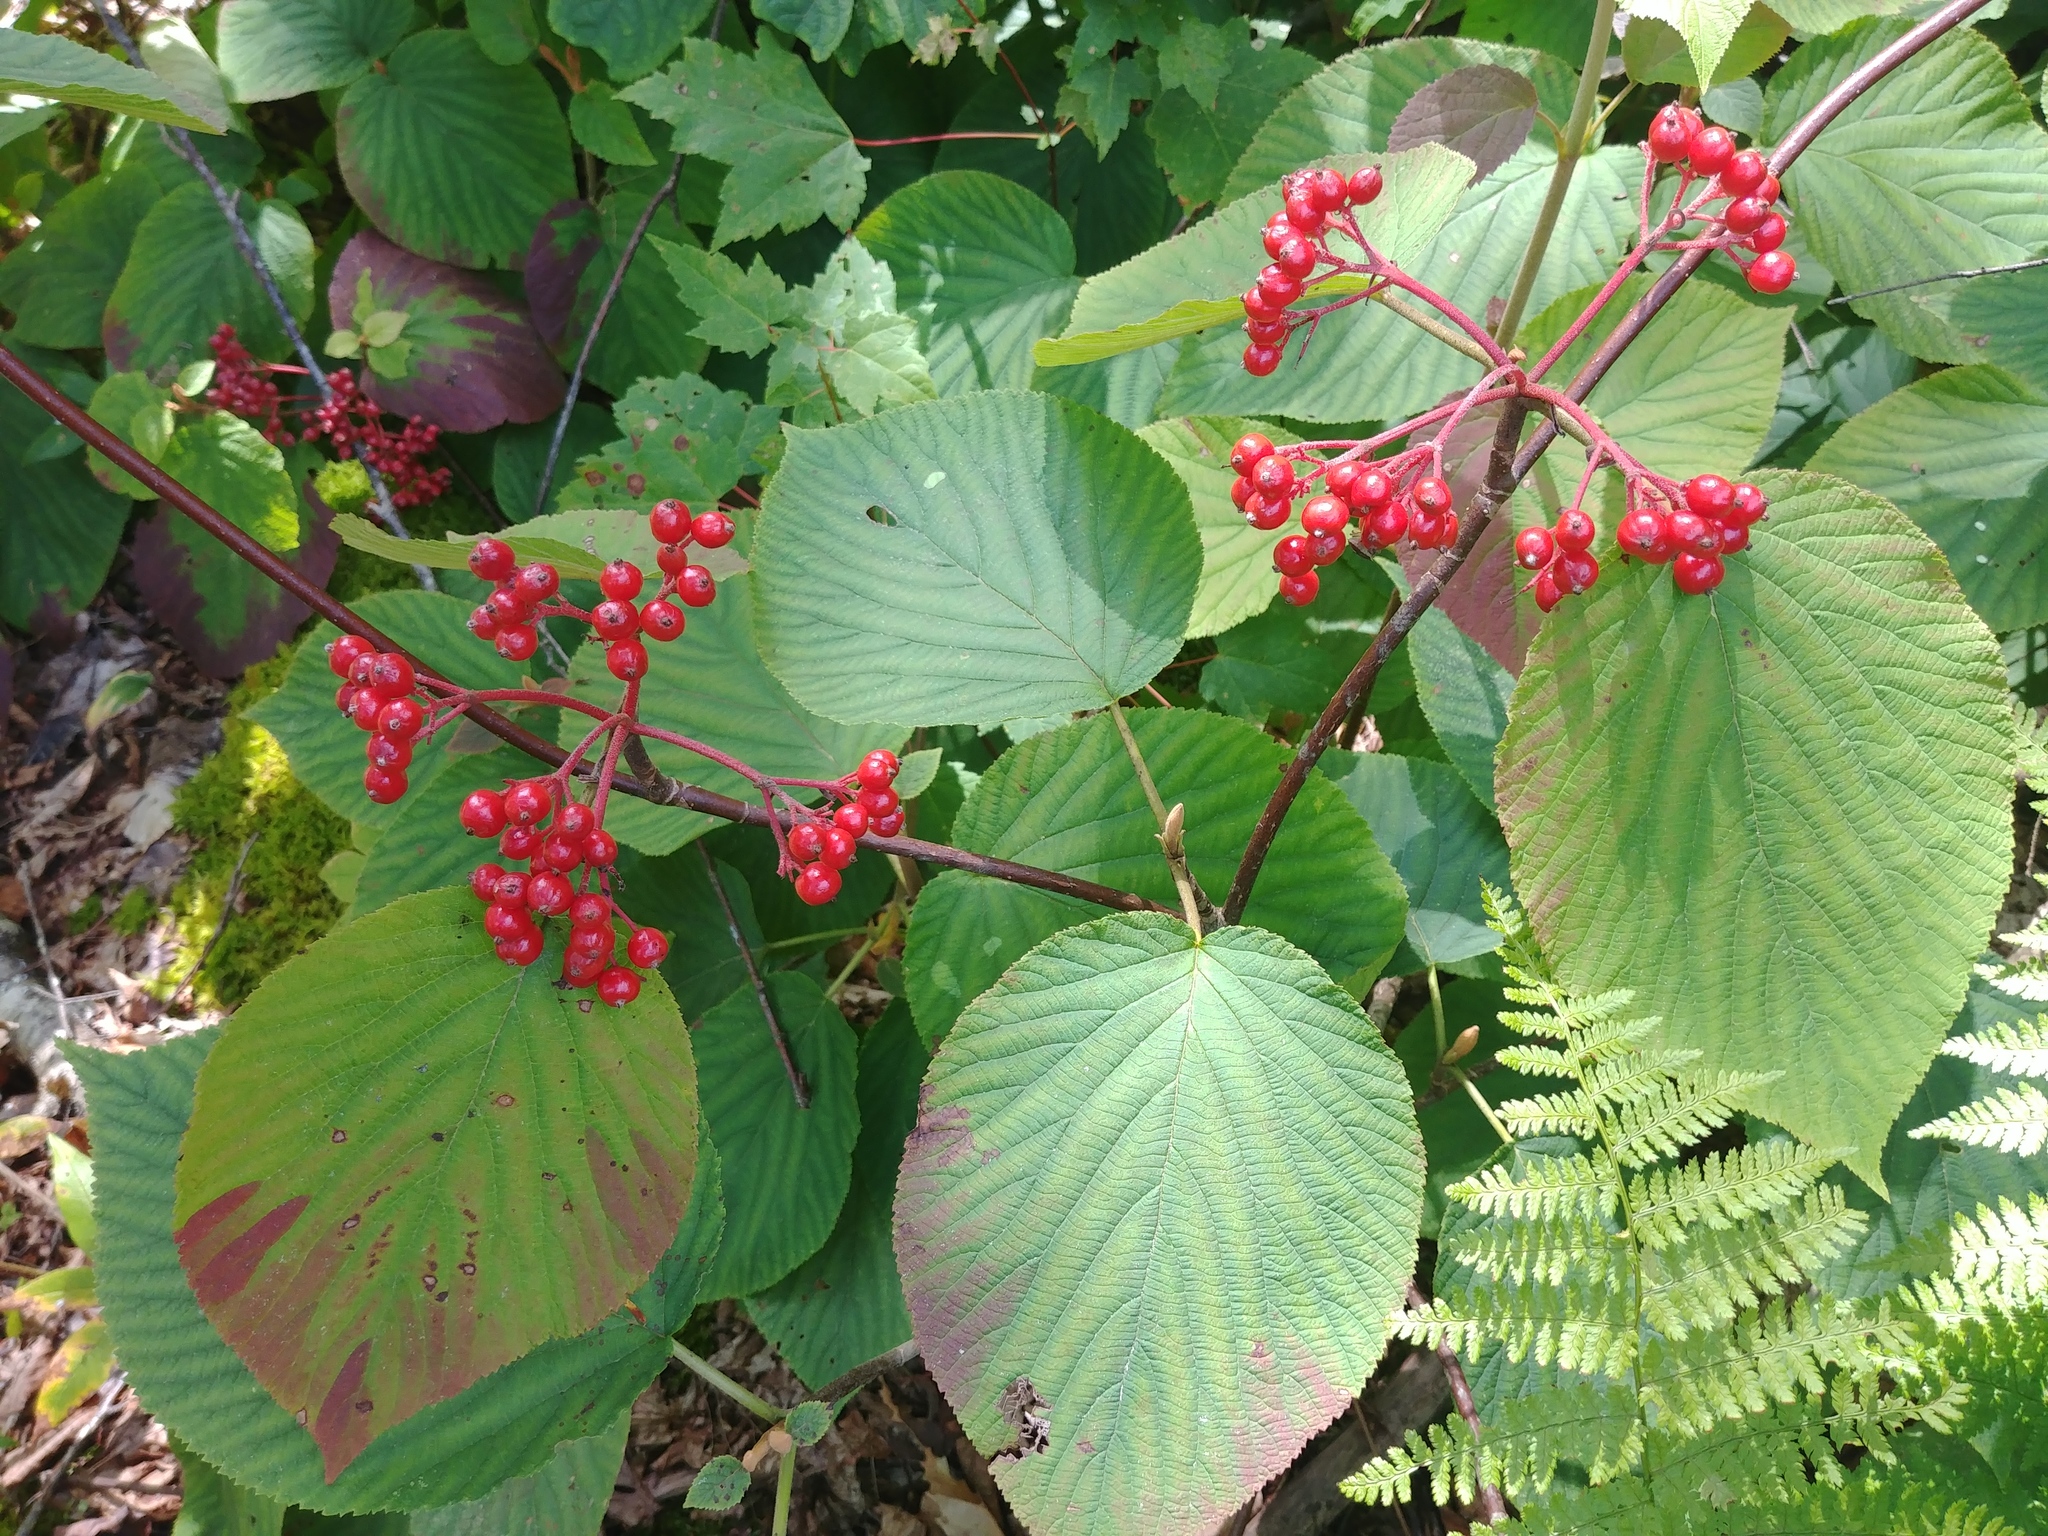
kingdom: Plantae
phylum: Tracheophyta
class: Magnoliopsida
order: Dipsacales
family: Viburnaceae
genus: Viburnum
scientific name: Viburnum lantanoides
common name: Hobblebush
